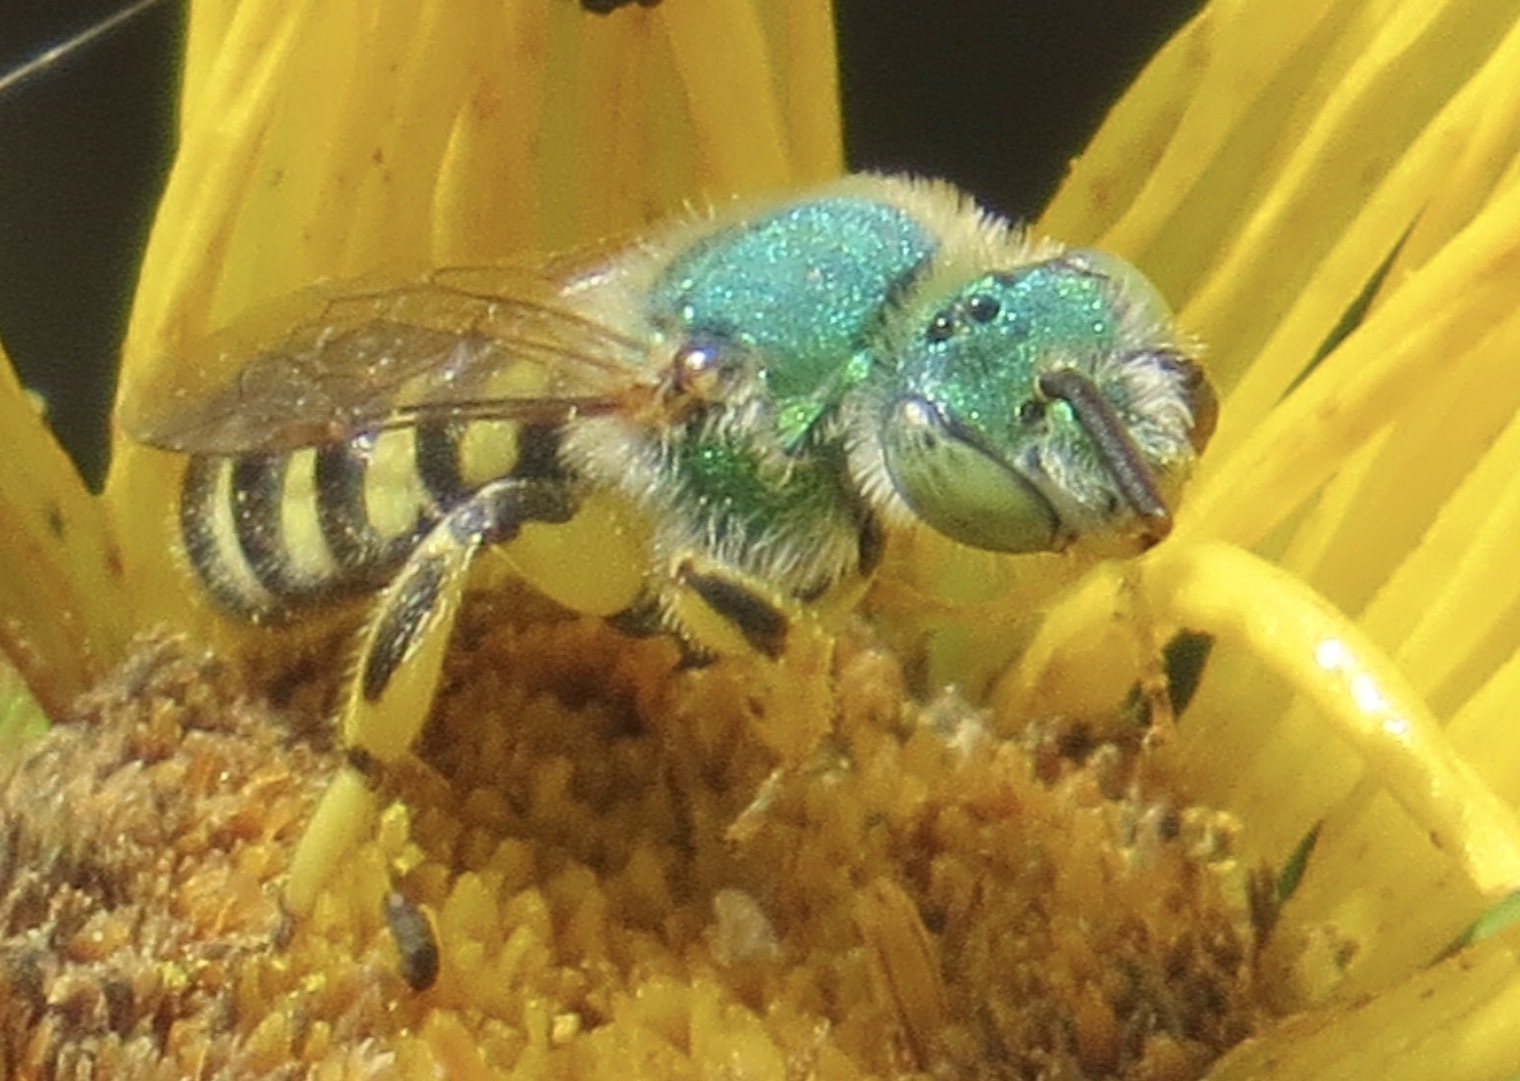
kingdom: Animalia
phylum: Arthropoda
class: Insecta
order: Hymenoptera
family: Halictidae
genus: Agapostemon
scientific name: Agapostemon texanus
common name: Texas striped sweat bee
